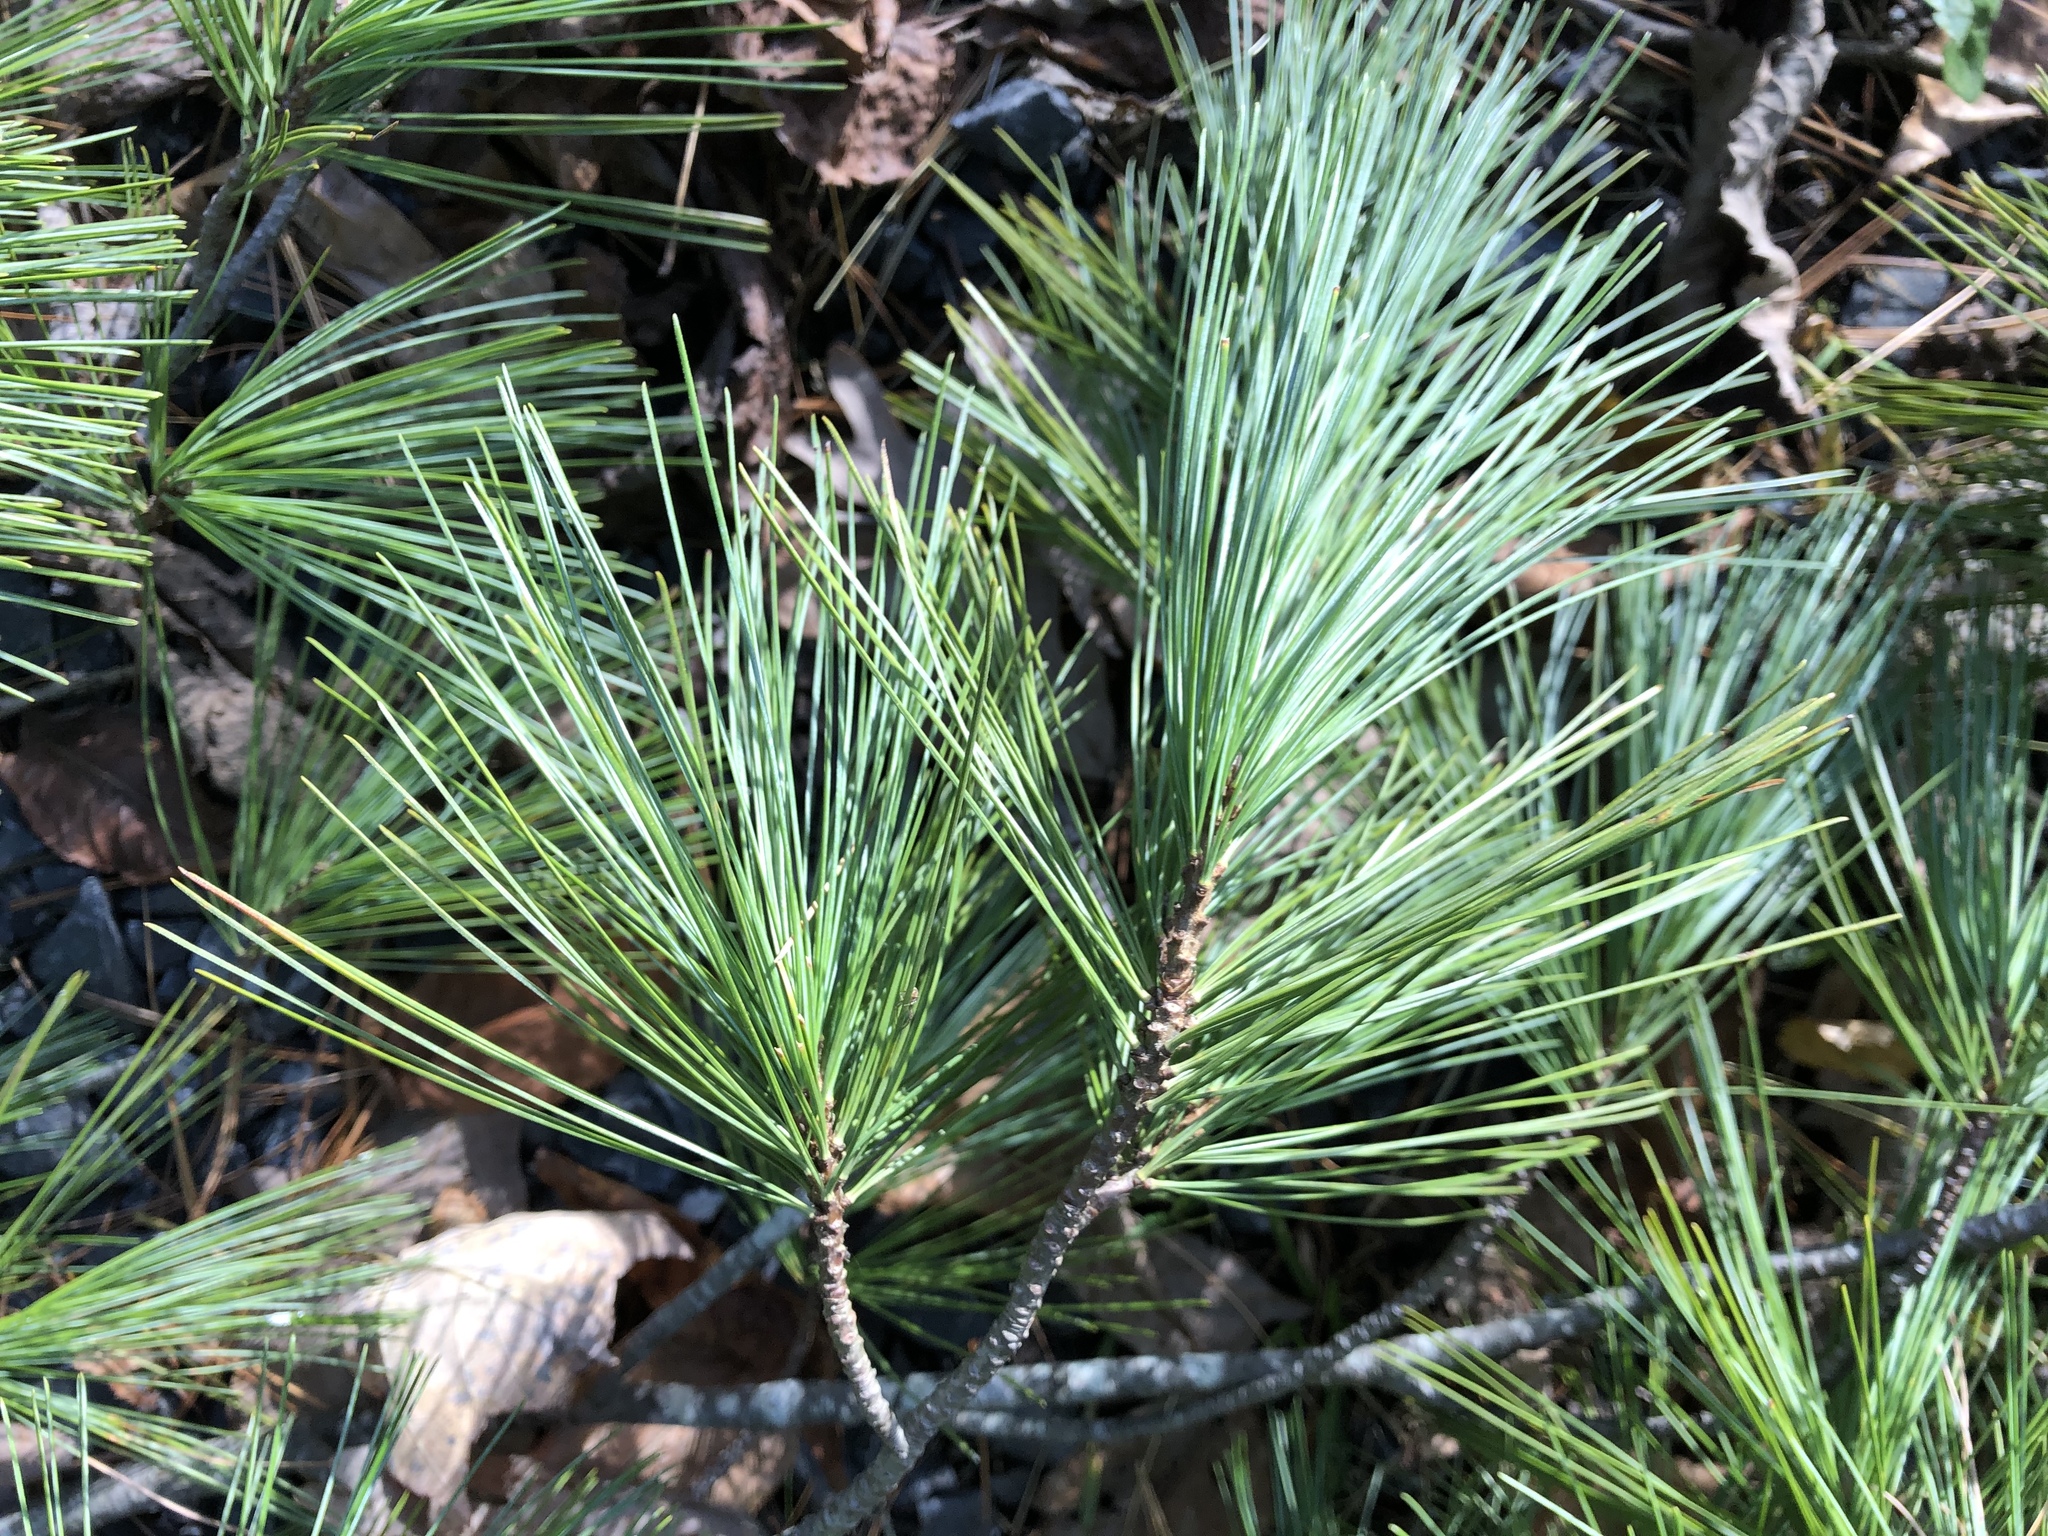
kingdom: Plantae
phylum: Tracheophyta
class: Pinopsida
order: Pinales
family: Pinaceae
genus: Pinus
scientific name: Pinus strobus
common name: Weymouth pine
